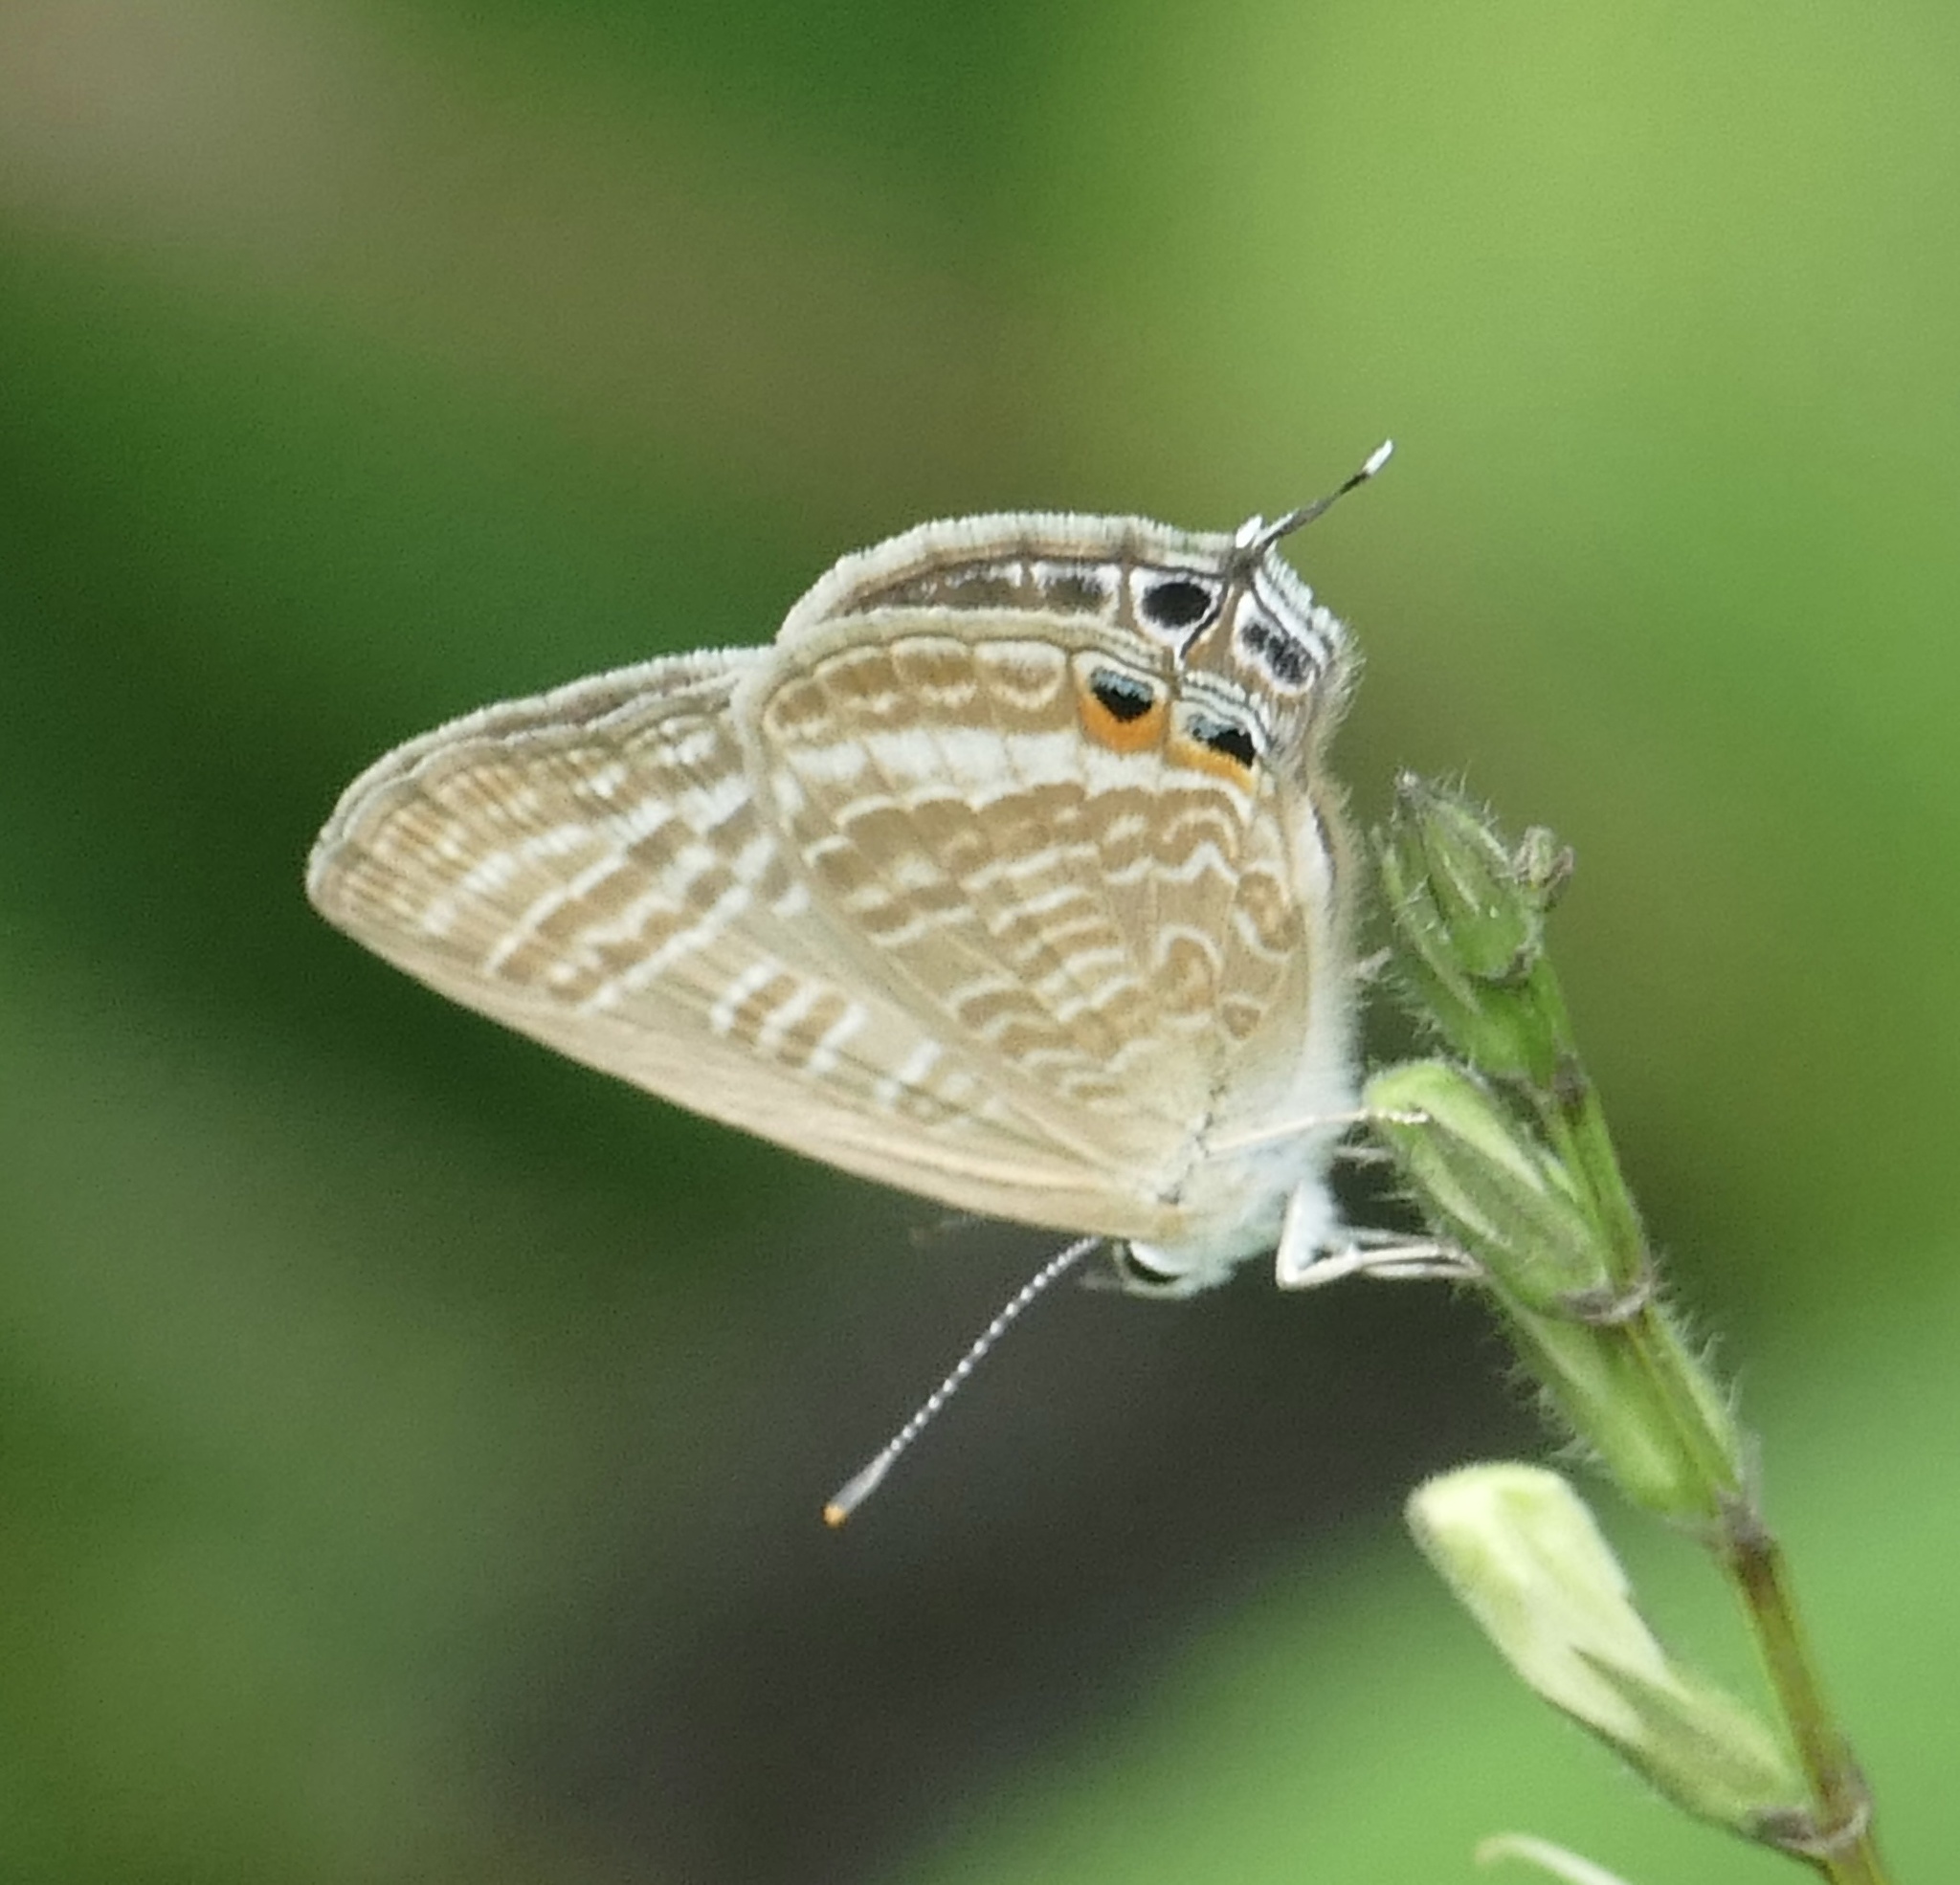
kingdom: Animalia
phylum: Arthropoda
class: Insecta
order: Lepidoptera
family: Lycaenidae
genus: Lampides
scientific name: Lampides boeticus
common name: Long-tailed blue
